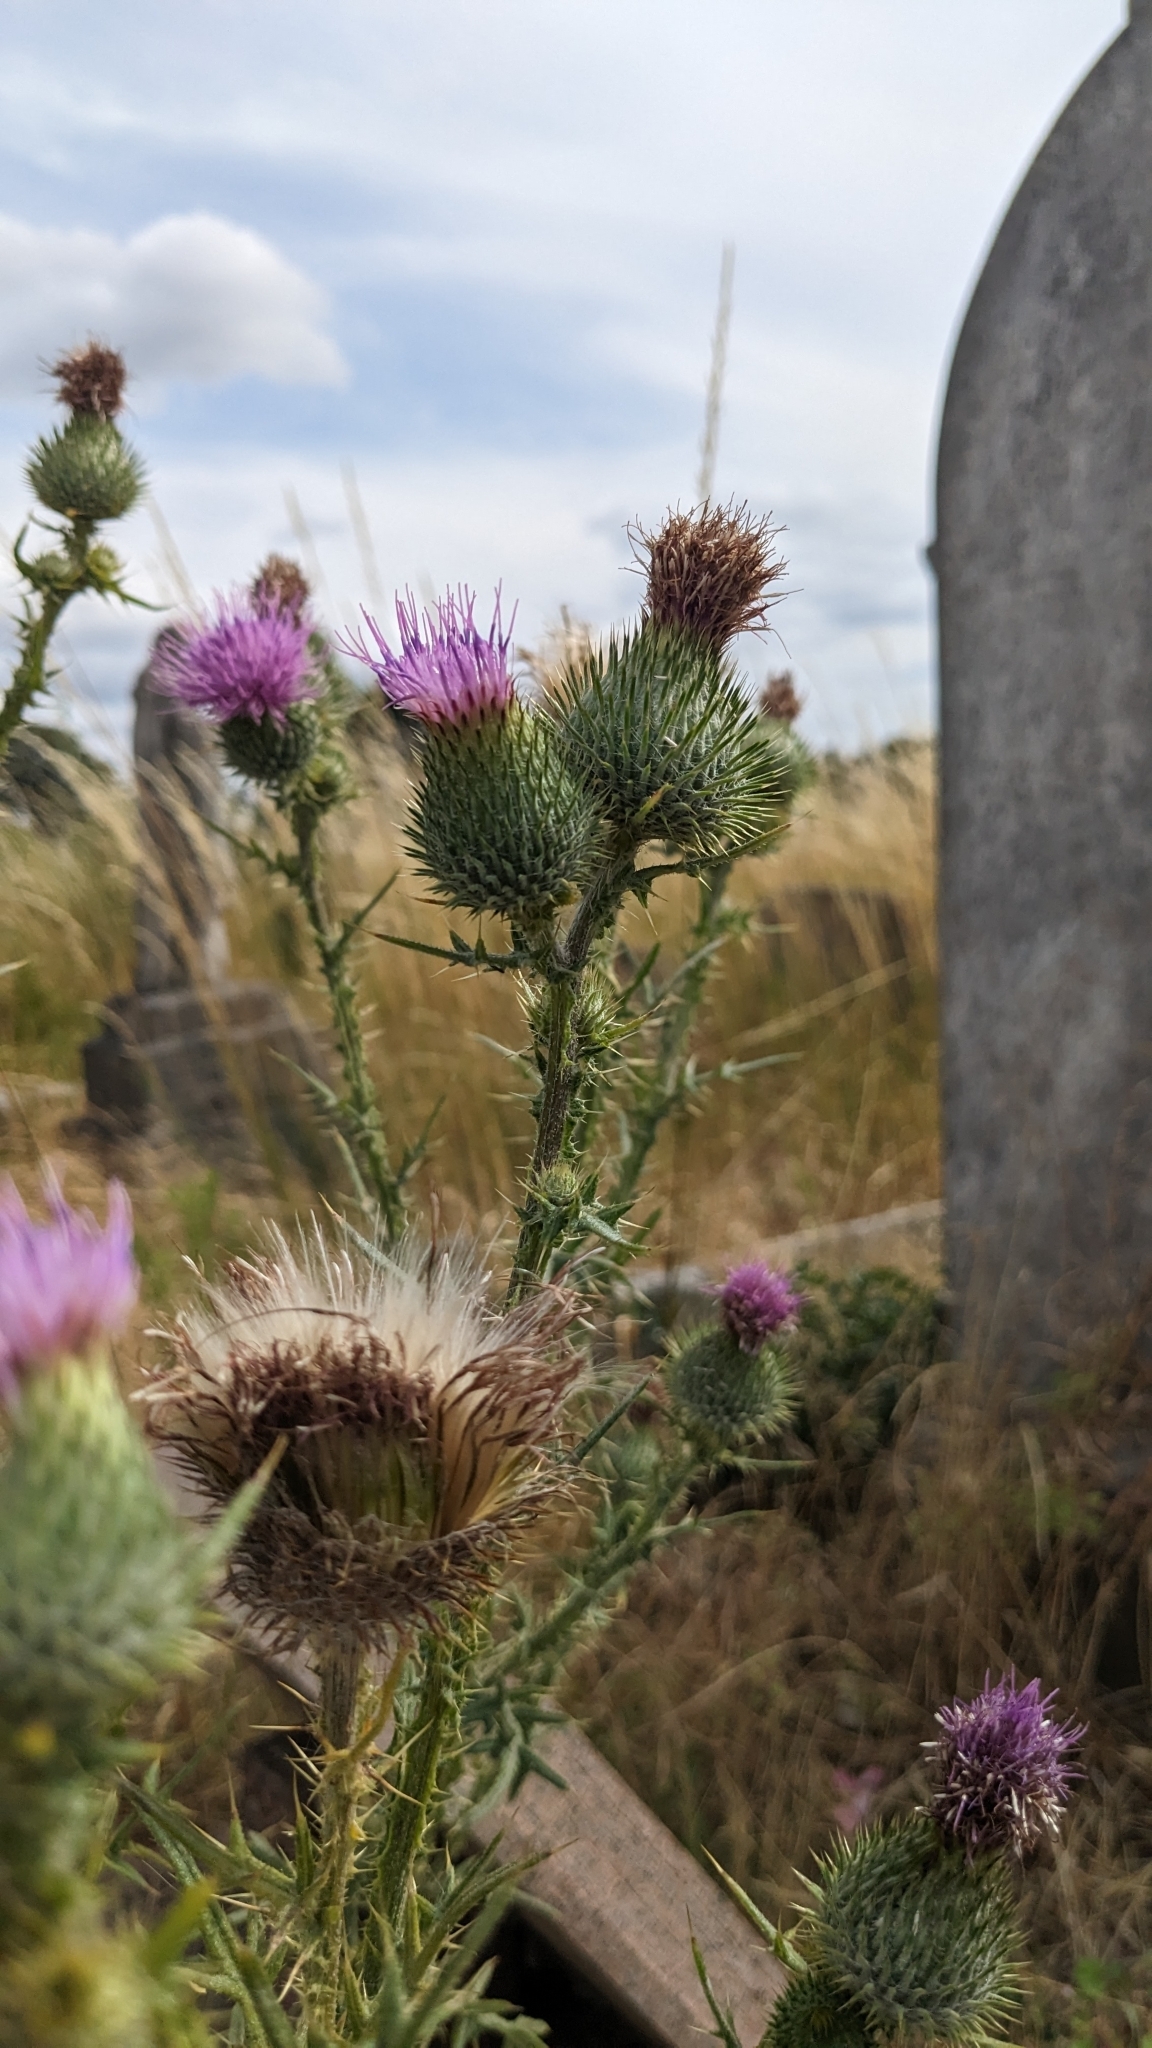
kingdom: Plantae
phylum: Tracheophyta
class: Magnoliopsida
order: Asterales
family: Asteraceae
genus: Cirsium
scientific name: Cirsium vulgare
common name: Bull thistle
